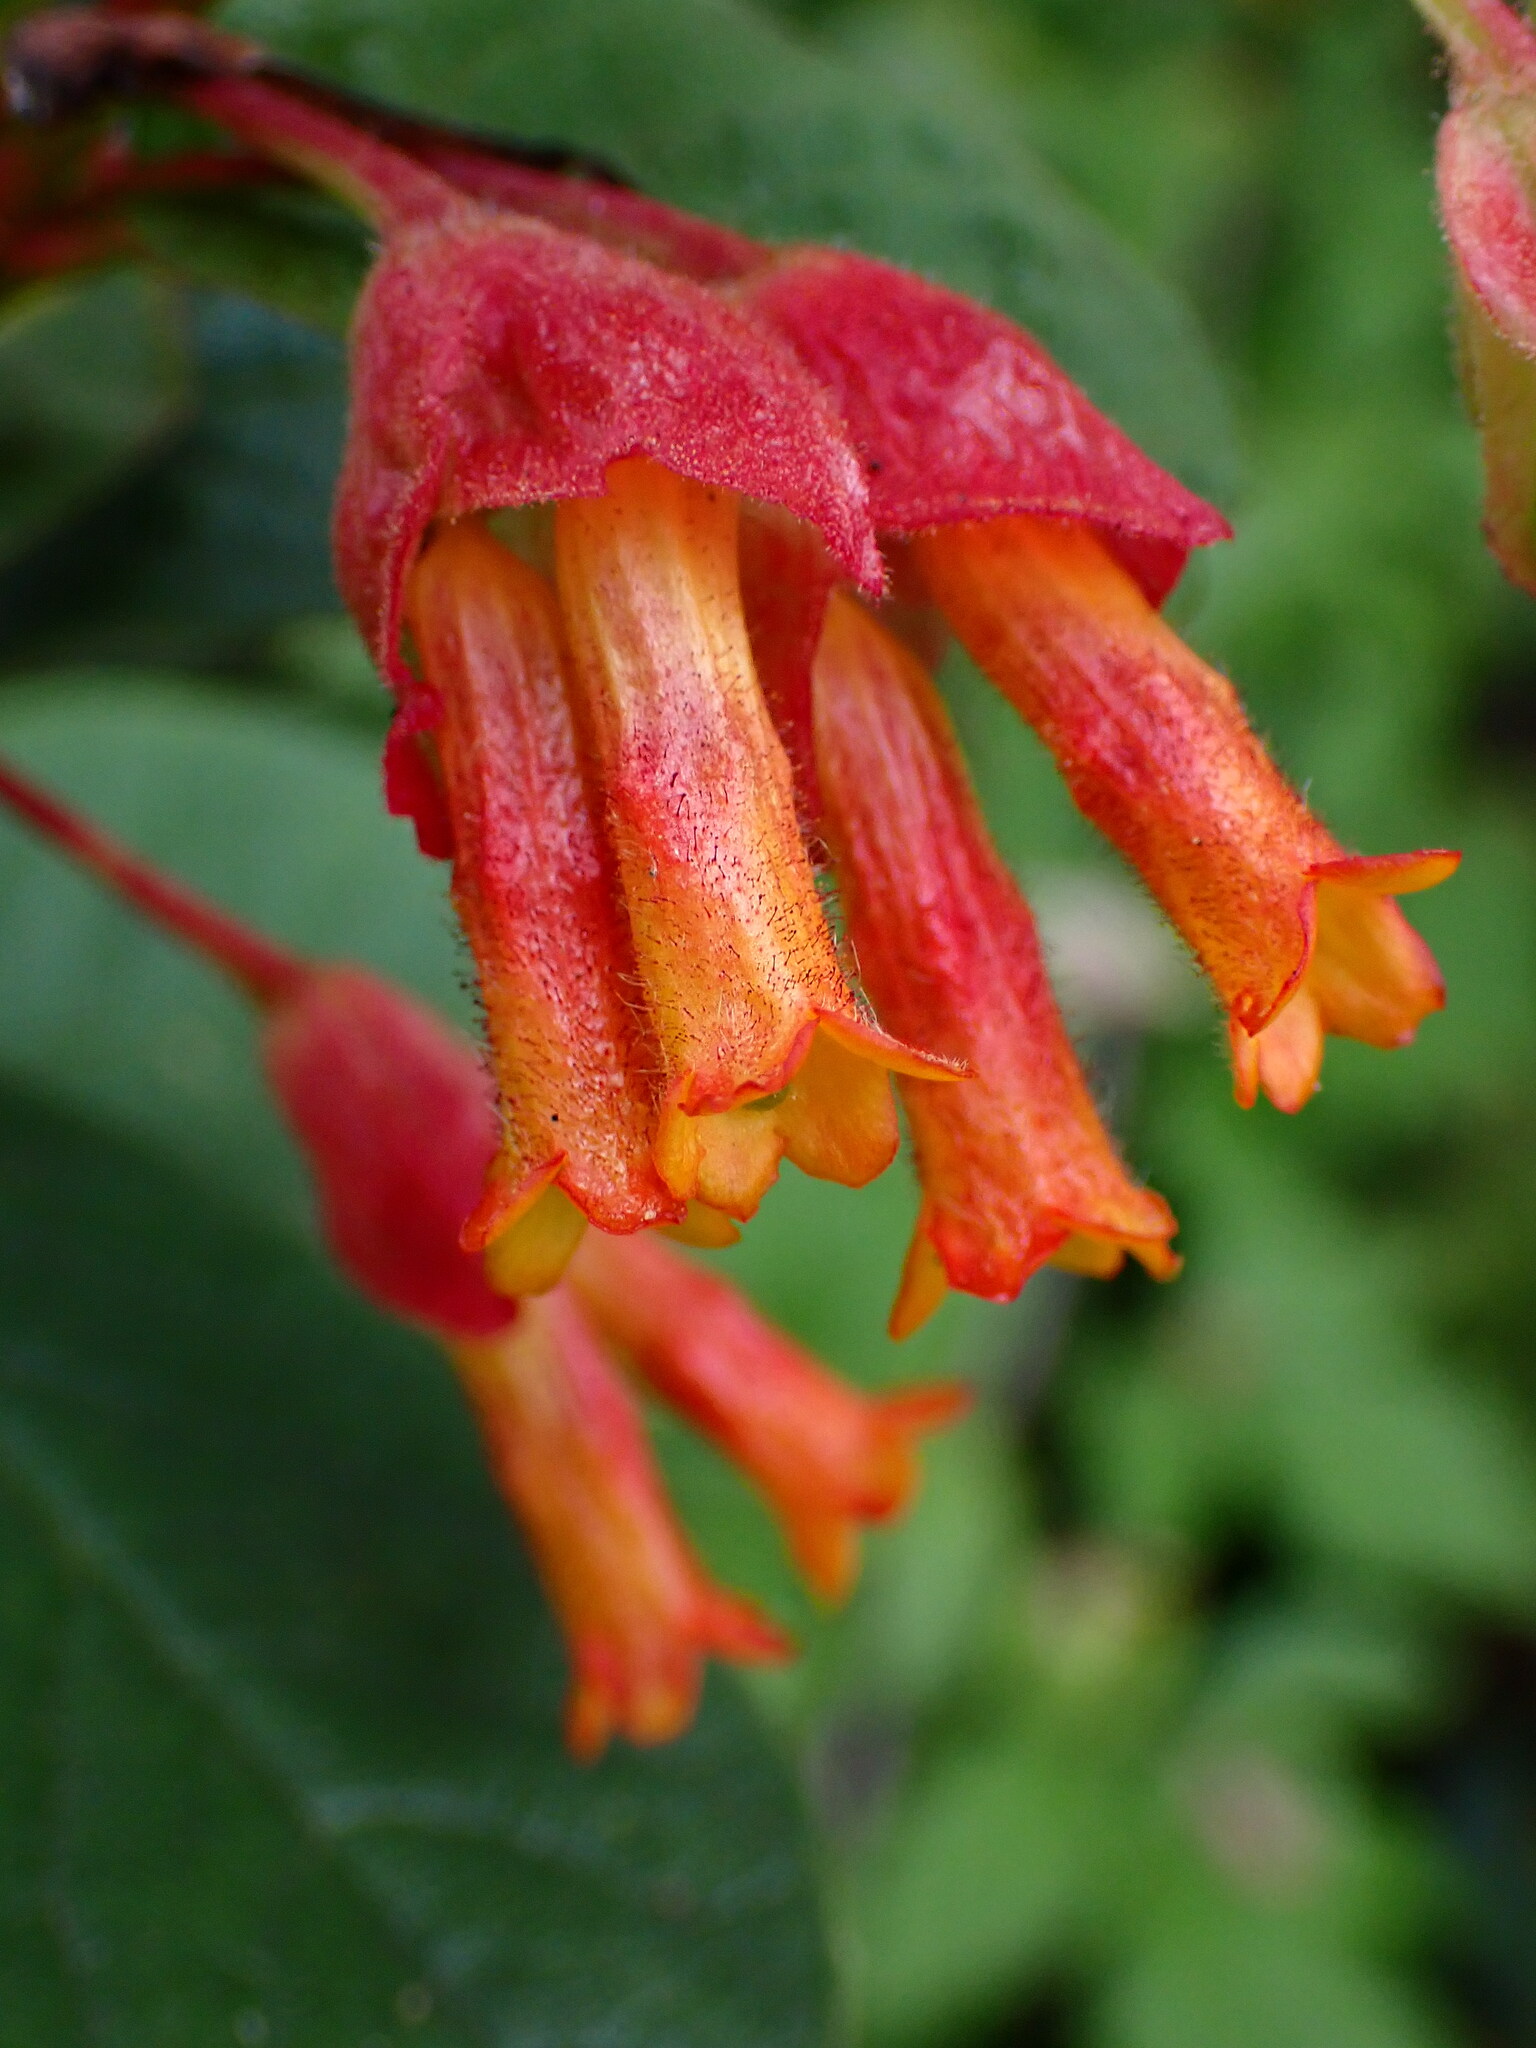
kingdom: Plantae
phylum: Tracheophyta
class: Magnoliopsida
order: Dipsacales
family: Caprifoliaceae
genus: Lonicera
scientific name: Lonicera involucrata
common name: Californian honeysuckle
